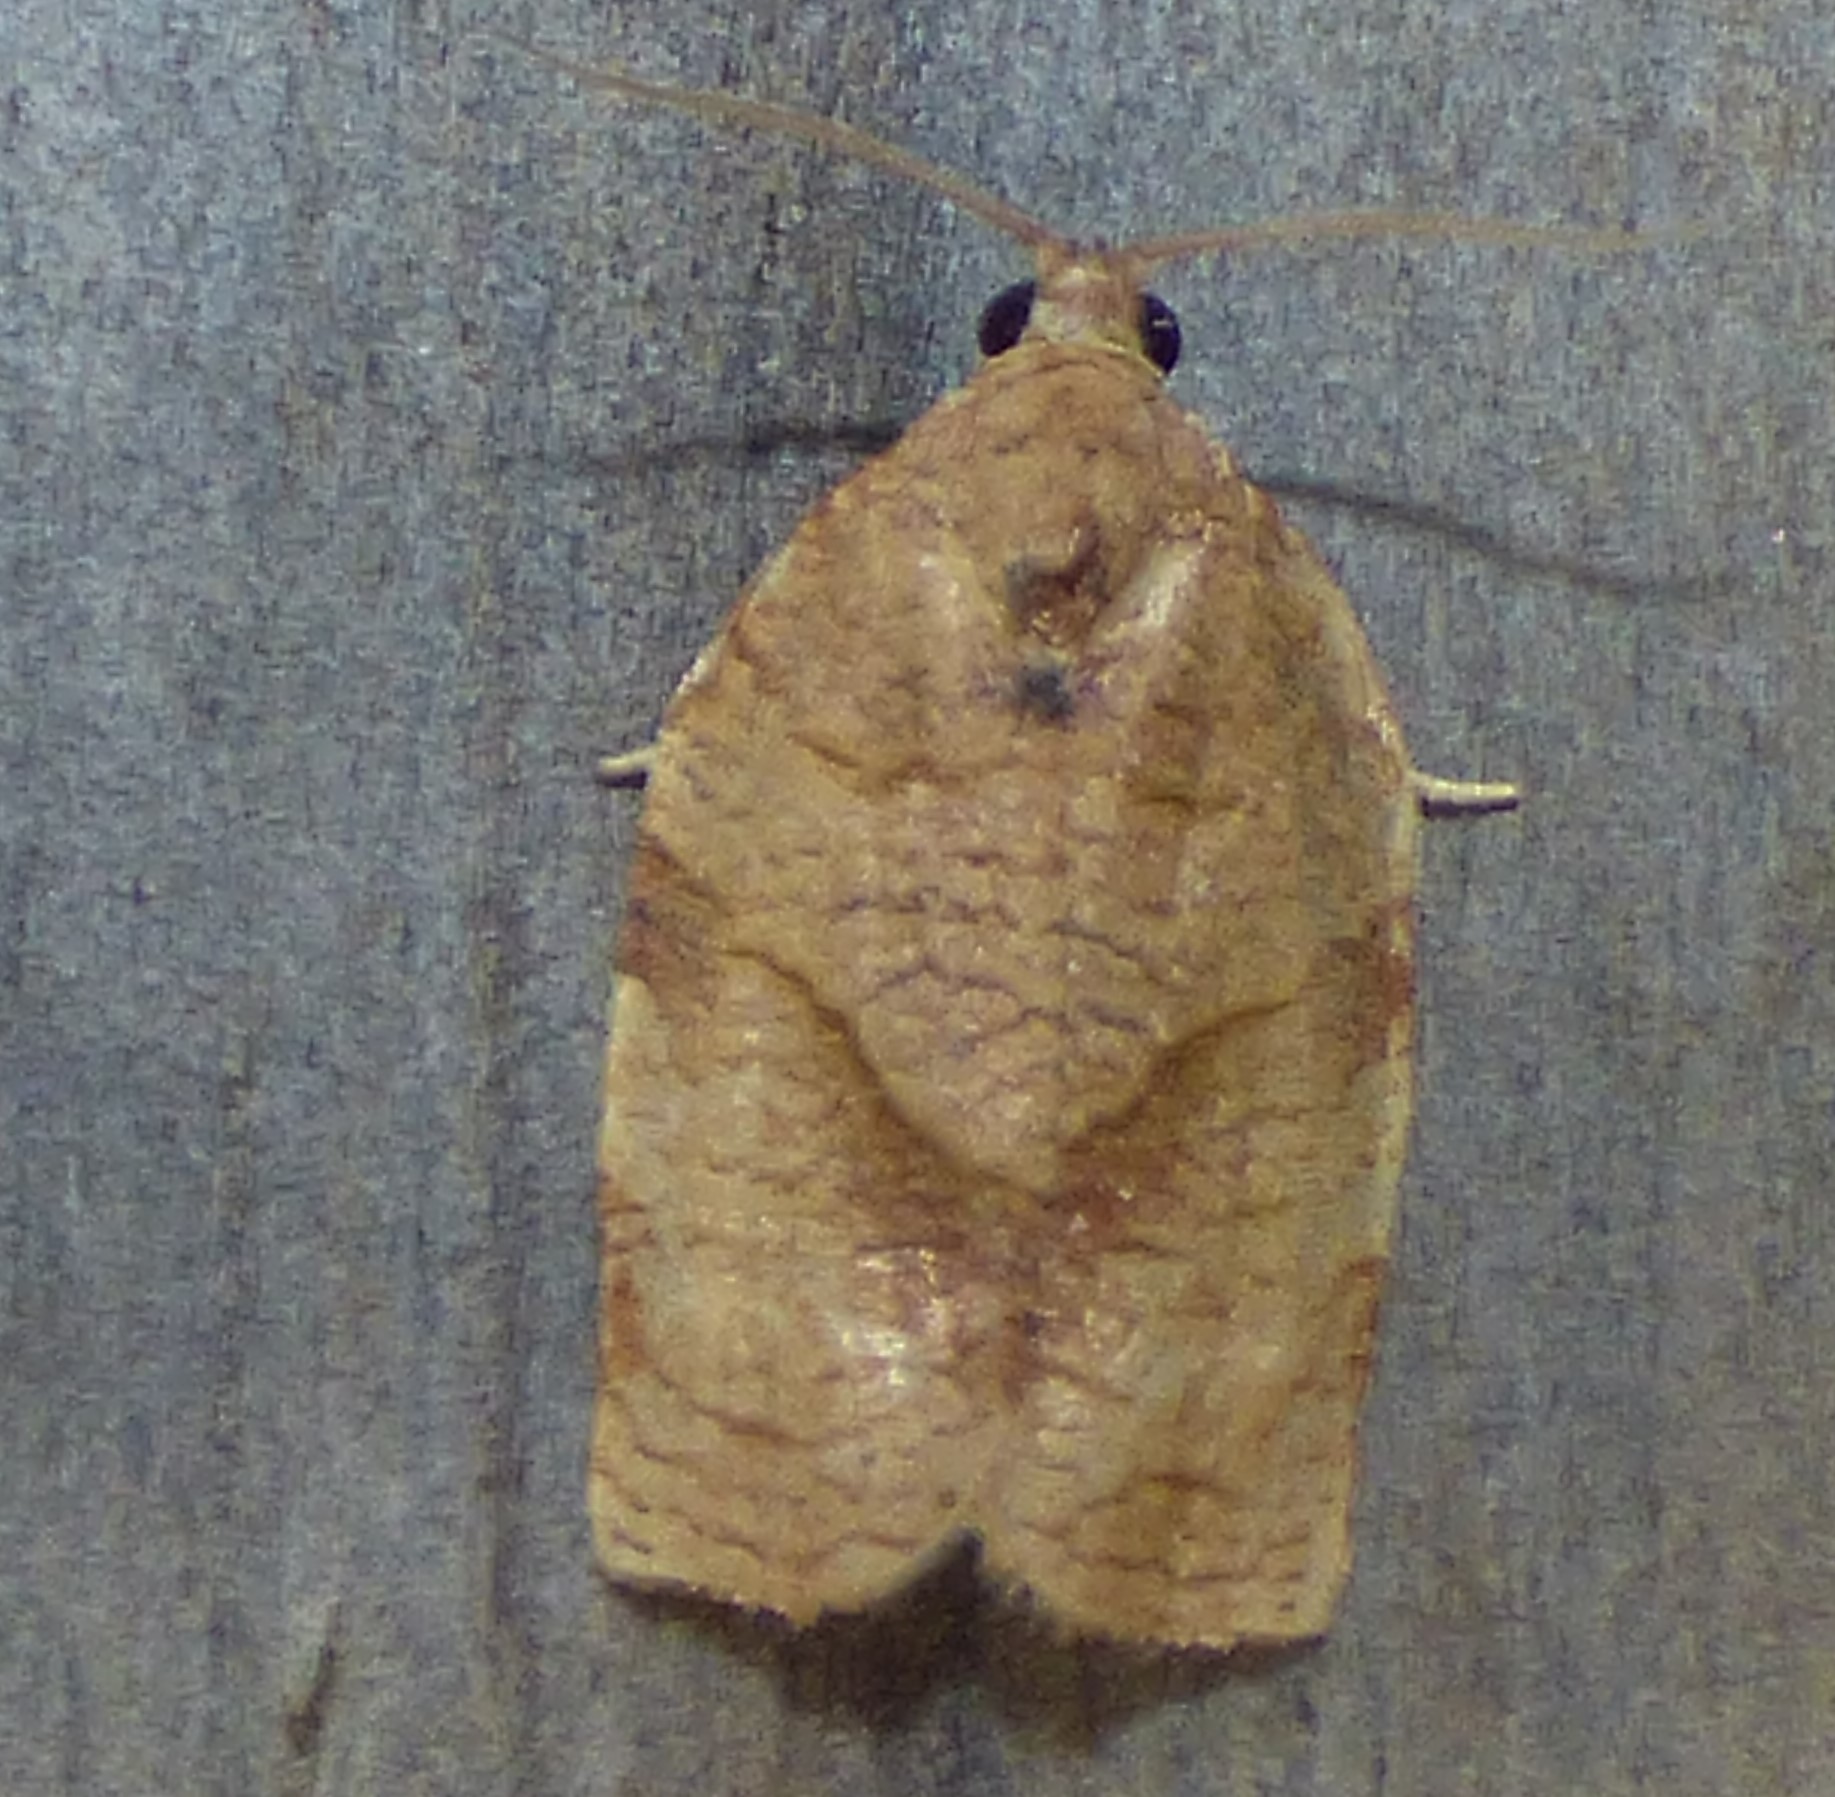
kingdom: Animalia
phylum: Arthropoda
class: Insecta
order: Lepidoptera
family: Tortricidae
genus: Choristoneura
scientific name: Choristoneura rosaceana
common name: Oblique-banded leafroller moth
